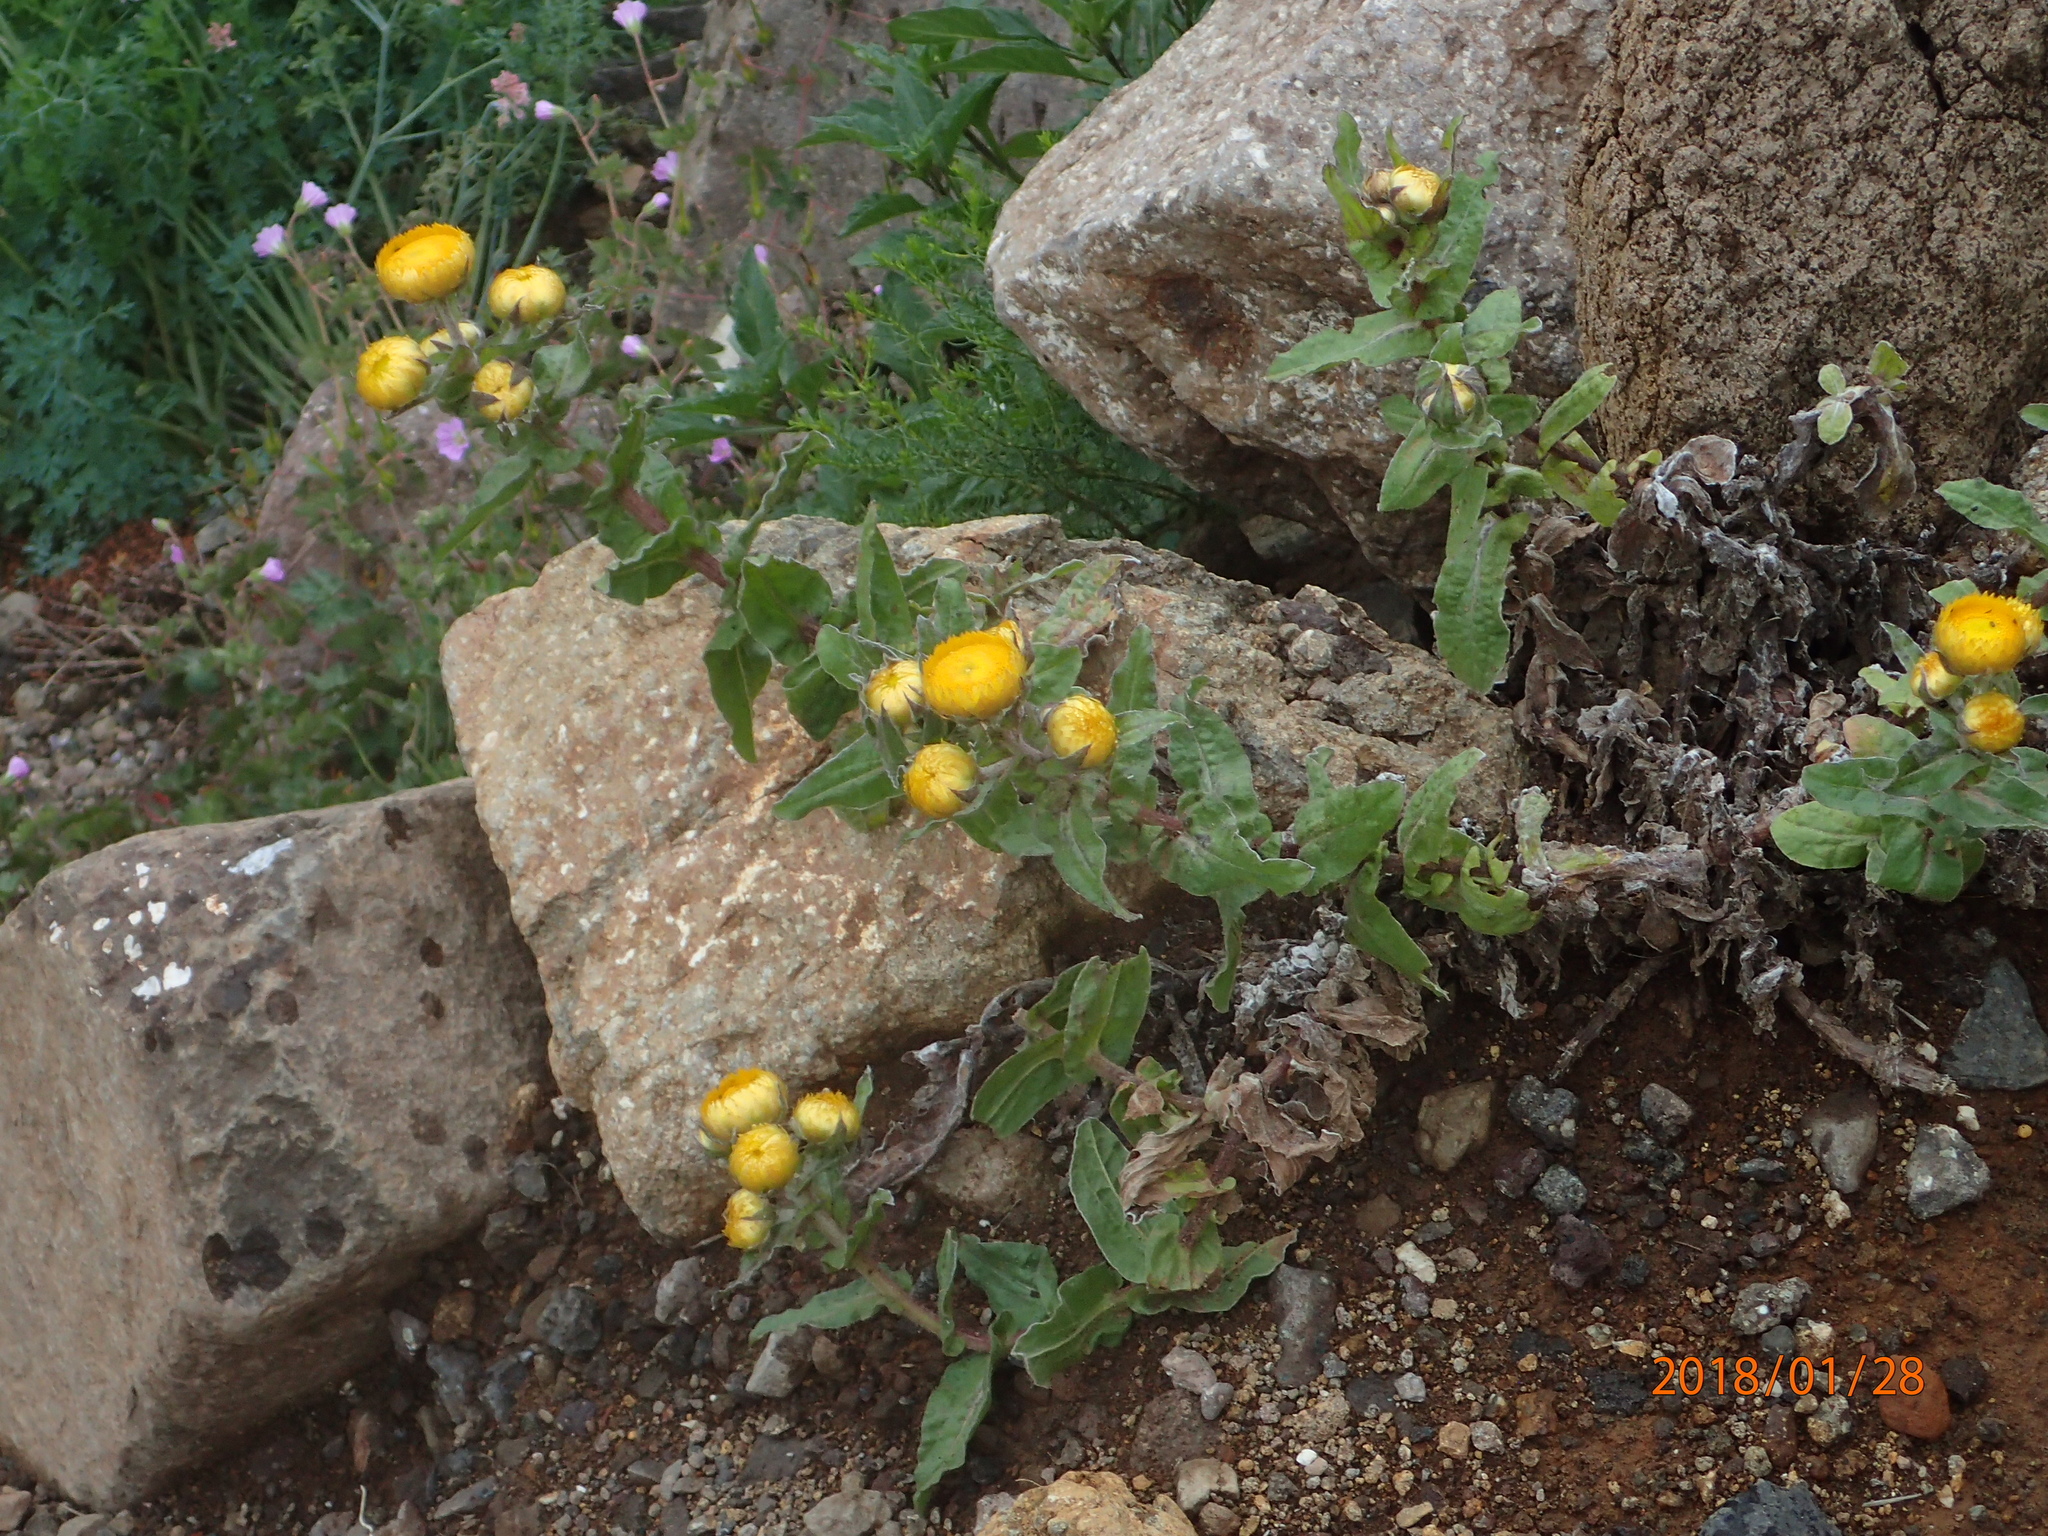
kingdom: Plantae
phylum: Tracheophyta
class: Magnoliopsida
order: Asterales
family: Asteraceae
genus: Helichrysum
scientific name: Helichrysum tenax
